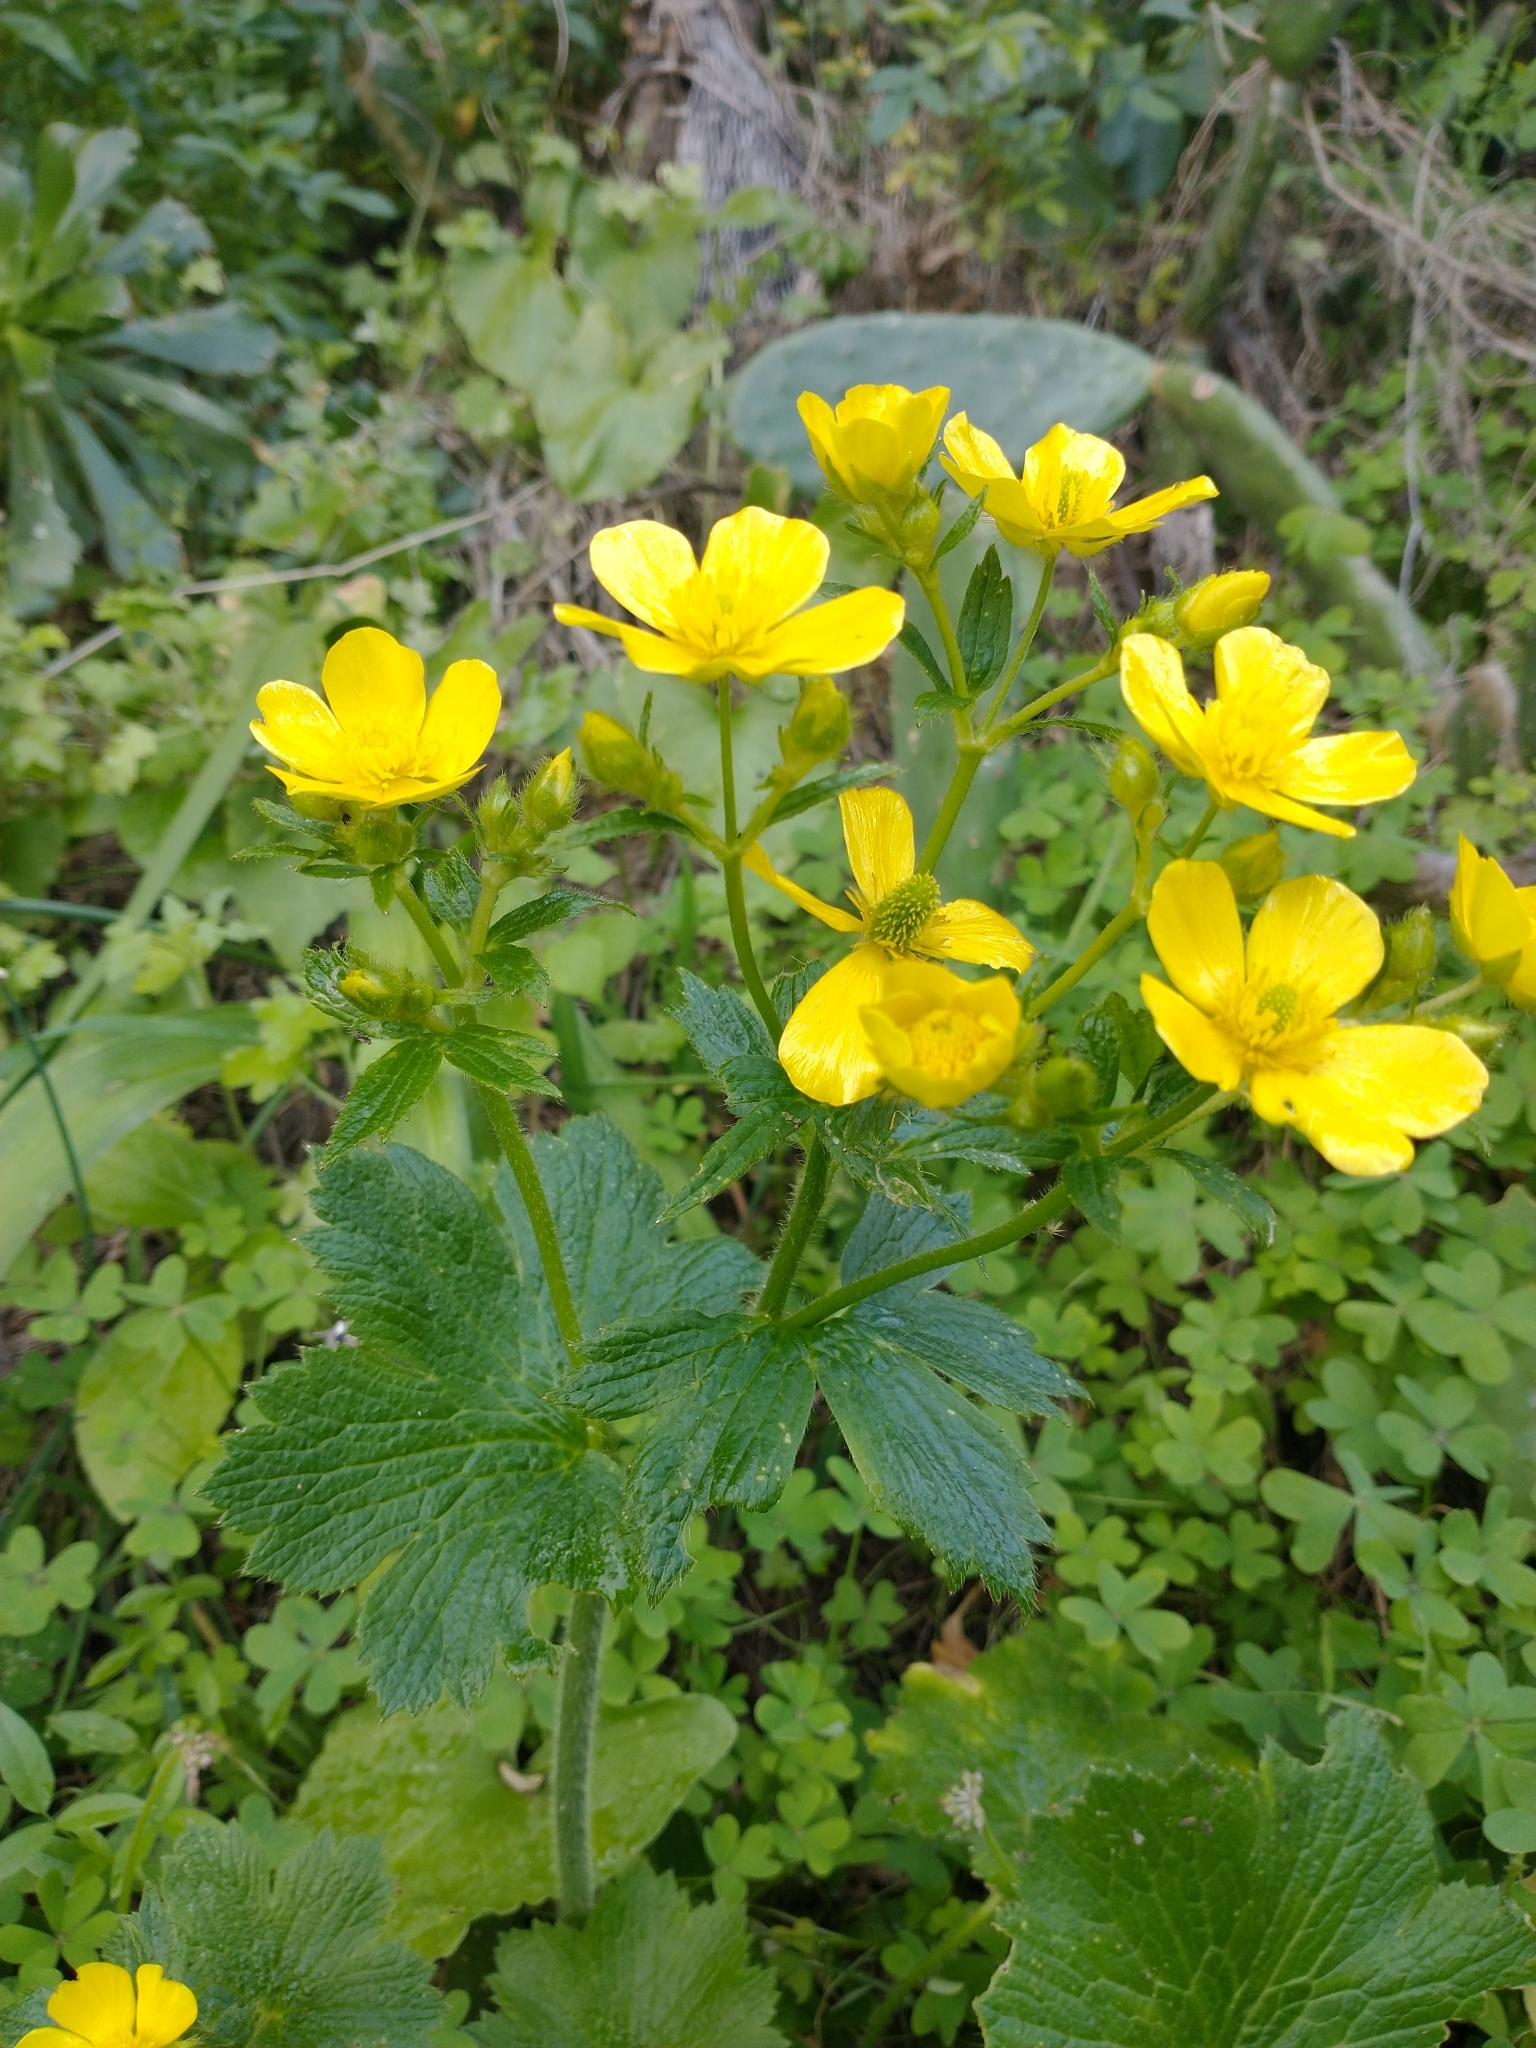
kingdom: Plantae
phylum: Tracheophyta
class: Magnoliopsida
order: Ranunculales
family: Ranunculaceae
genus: Ranunculus
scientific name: Ranunculus cortusifolius
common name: Azores buttercup
